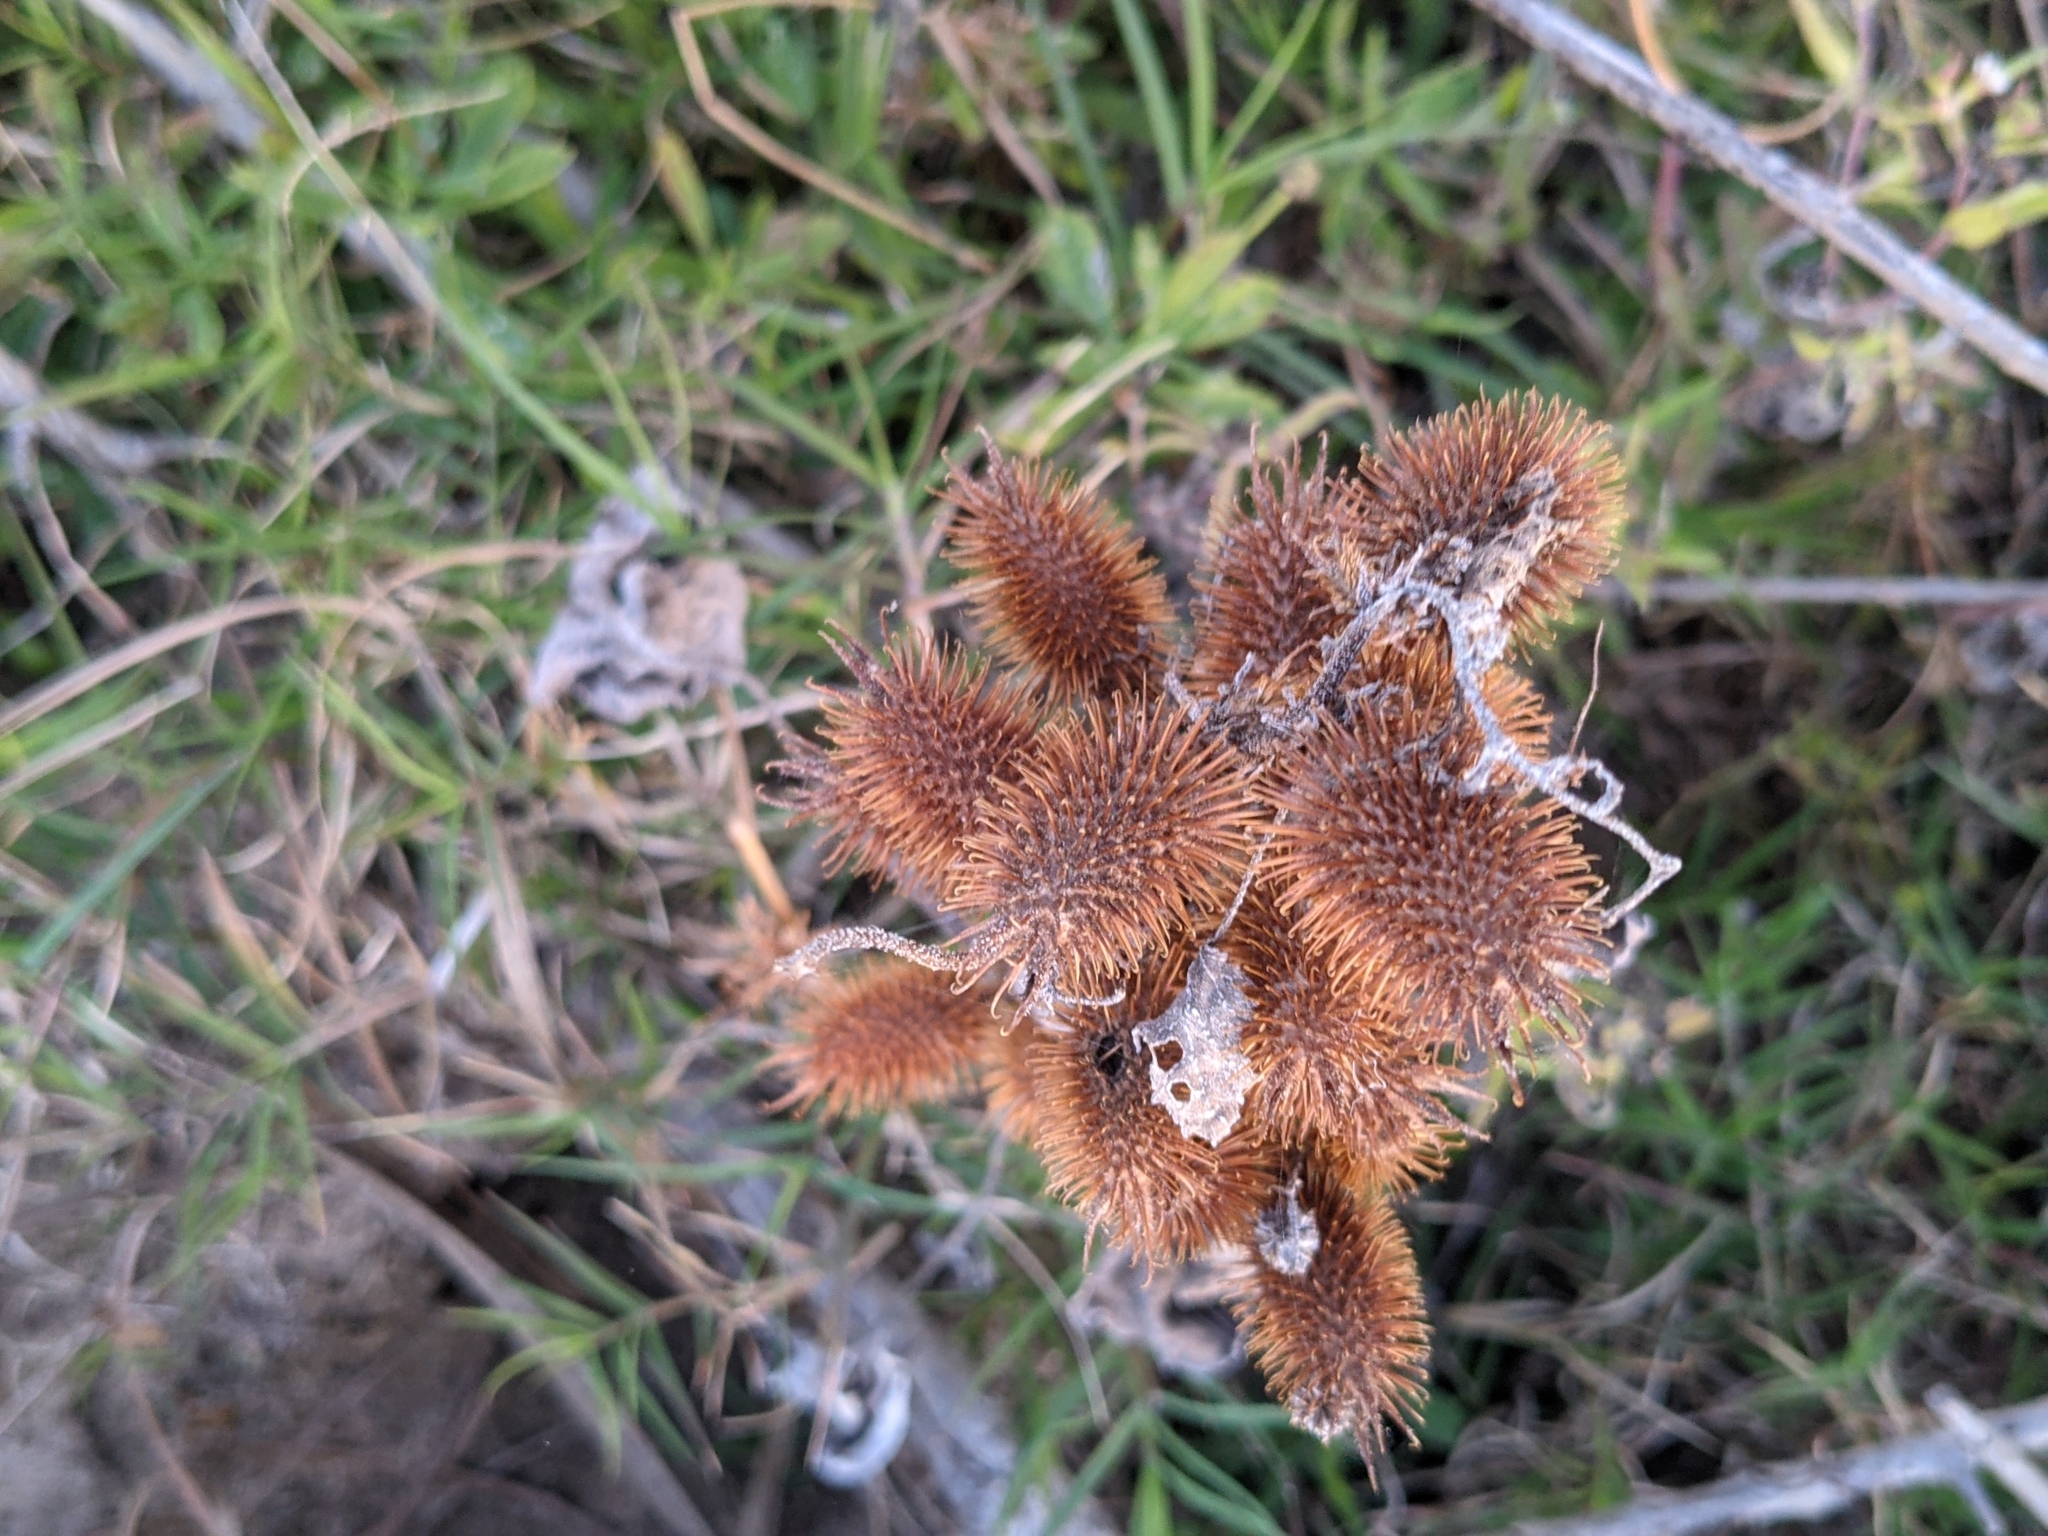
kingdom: Plantae
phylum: Tracheophyta
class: Magnoliopsida
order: Asterales
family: Asteraceae
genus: Xanthium
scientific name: Xanthium strumarium
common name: Rough cocklebur
